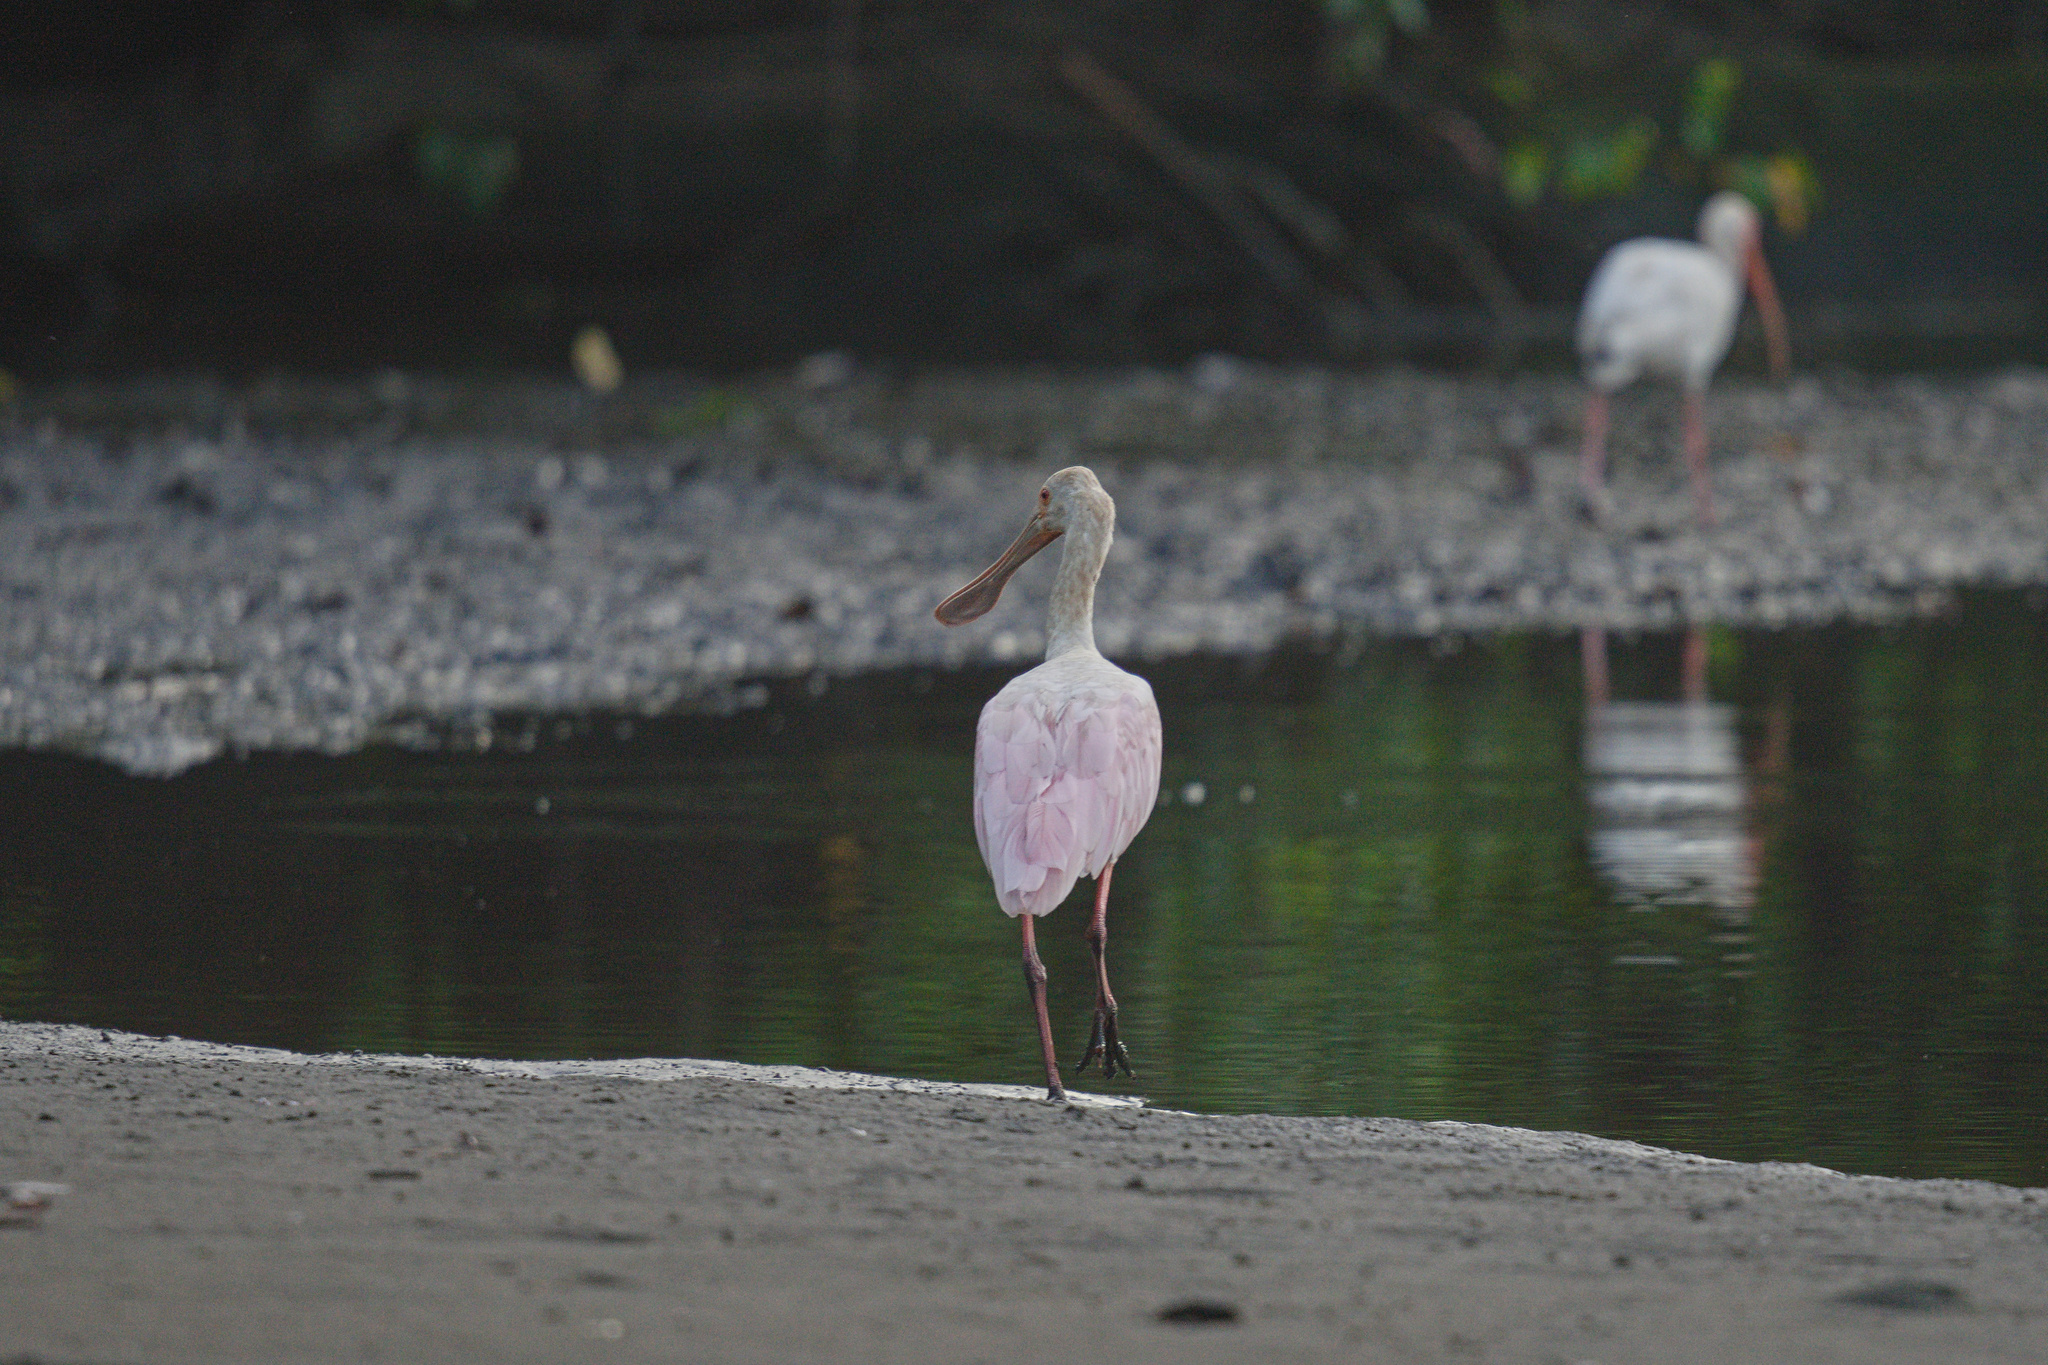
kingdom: Animalia
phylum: Chordata
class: Aves
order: Pelecaniformes
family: Threskiornithidae
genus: Platalea
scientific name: Platalea ajaja
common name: Roseate spoonbill
